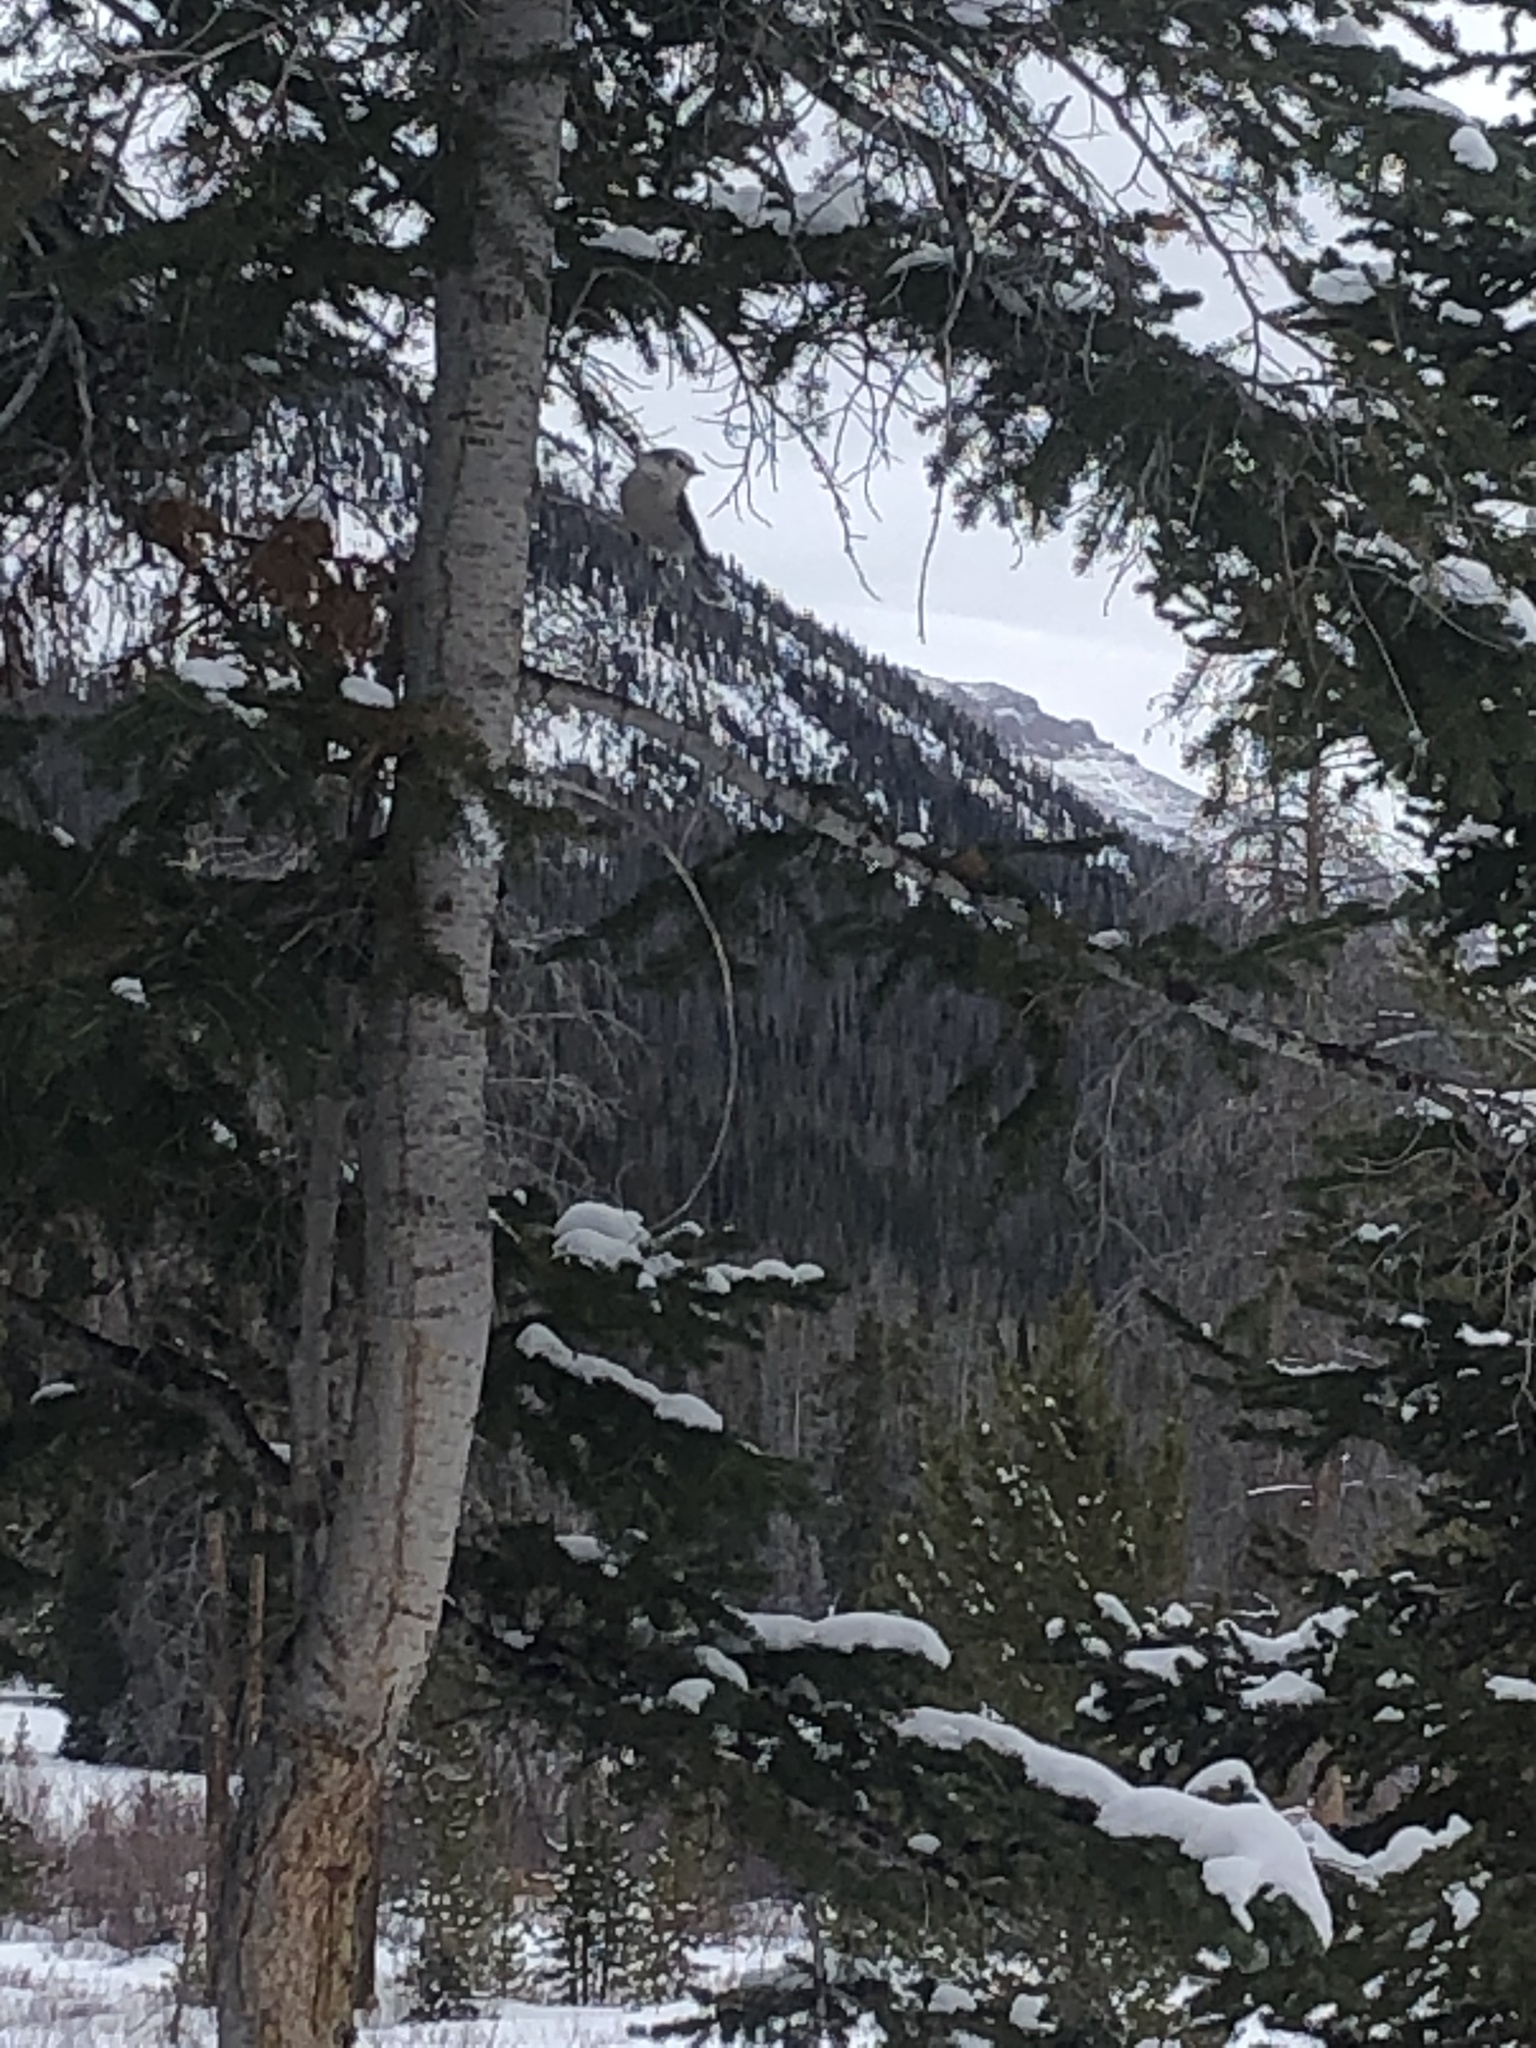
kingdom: Animalia
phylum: Chordata
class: Aves
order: Passeriformes
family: Corvidae
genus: Perisoreus
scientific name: Perisoreus canadensis
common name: Gray jay
